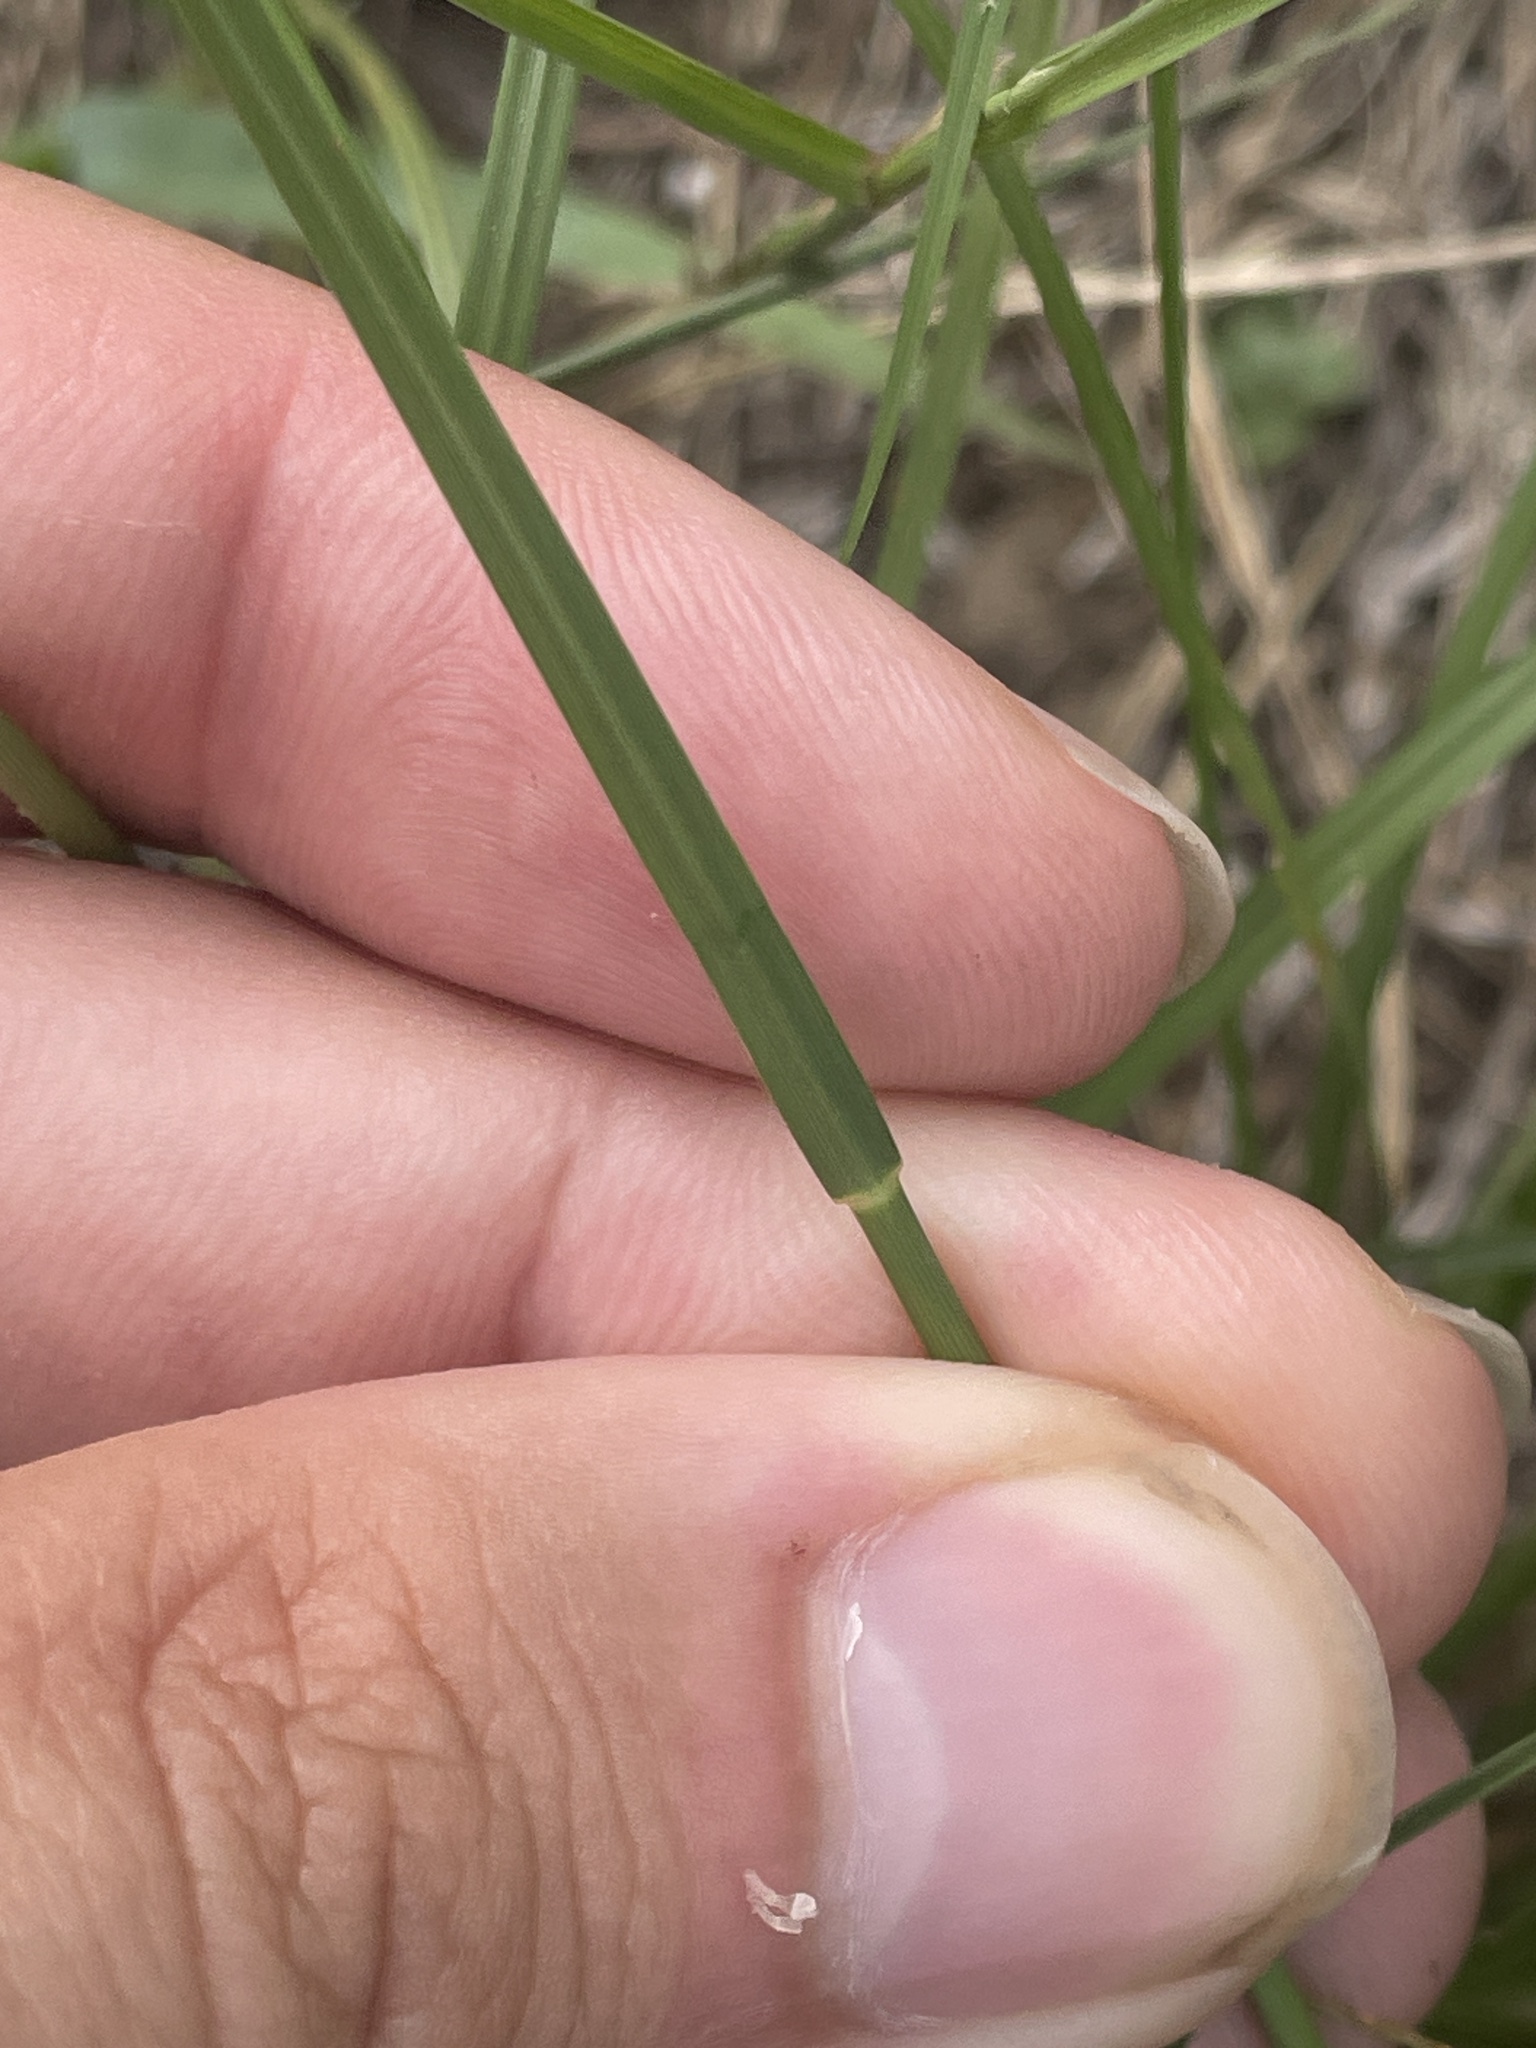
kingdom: Plantae
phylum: Tracheophyta
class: Liliopsida
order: Poales
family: Poaceae
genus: Sporobolus
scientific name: Sporobolus heterolepis
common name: Prairie dropseed
